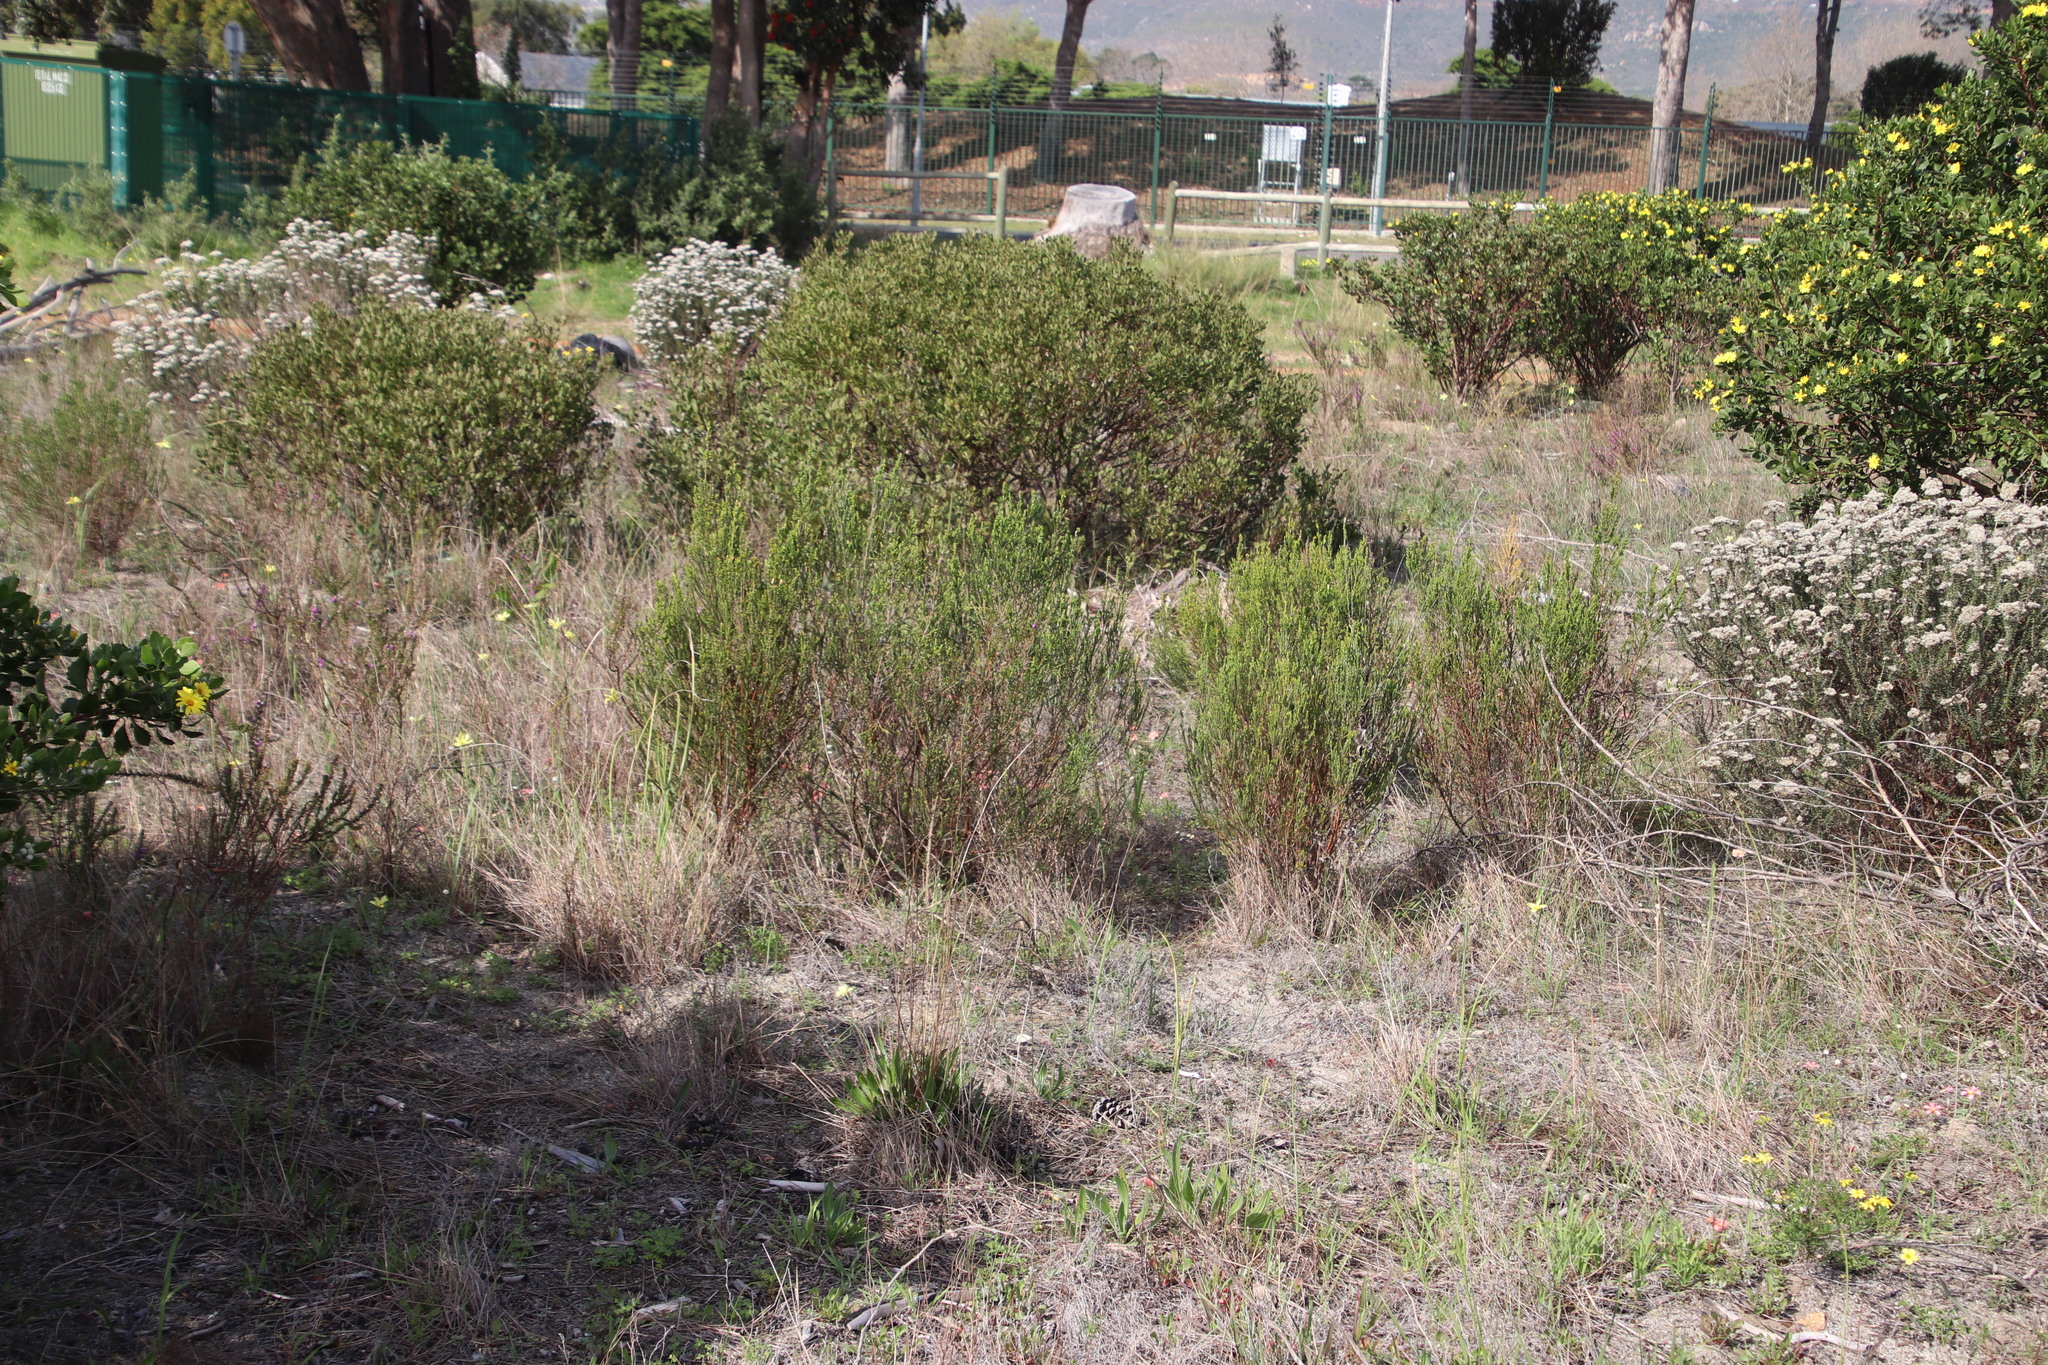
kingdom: Plantae
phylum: Tracheophyta
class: Magnoliopsida
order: Malvales
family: Thymelaeaceae
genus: Passerina
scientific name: Passerina corymbosa
